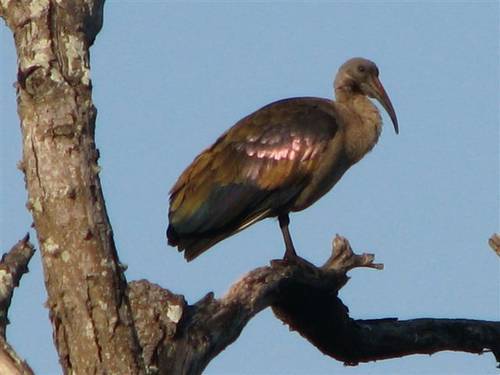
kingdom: Animalia
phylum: Chordata
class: Aves
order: Pelecaniformes
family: Threskiornithidae
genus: Bostrychia
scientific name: Bostrychia hagedash
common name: Hadada ibis
